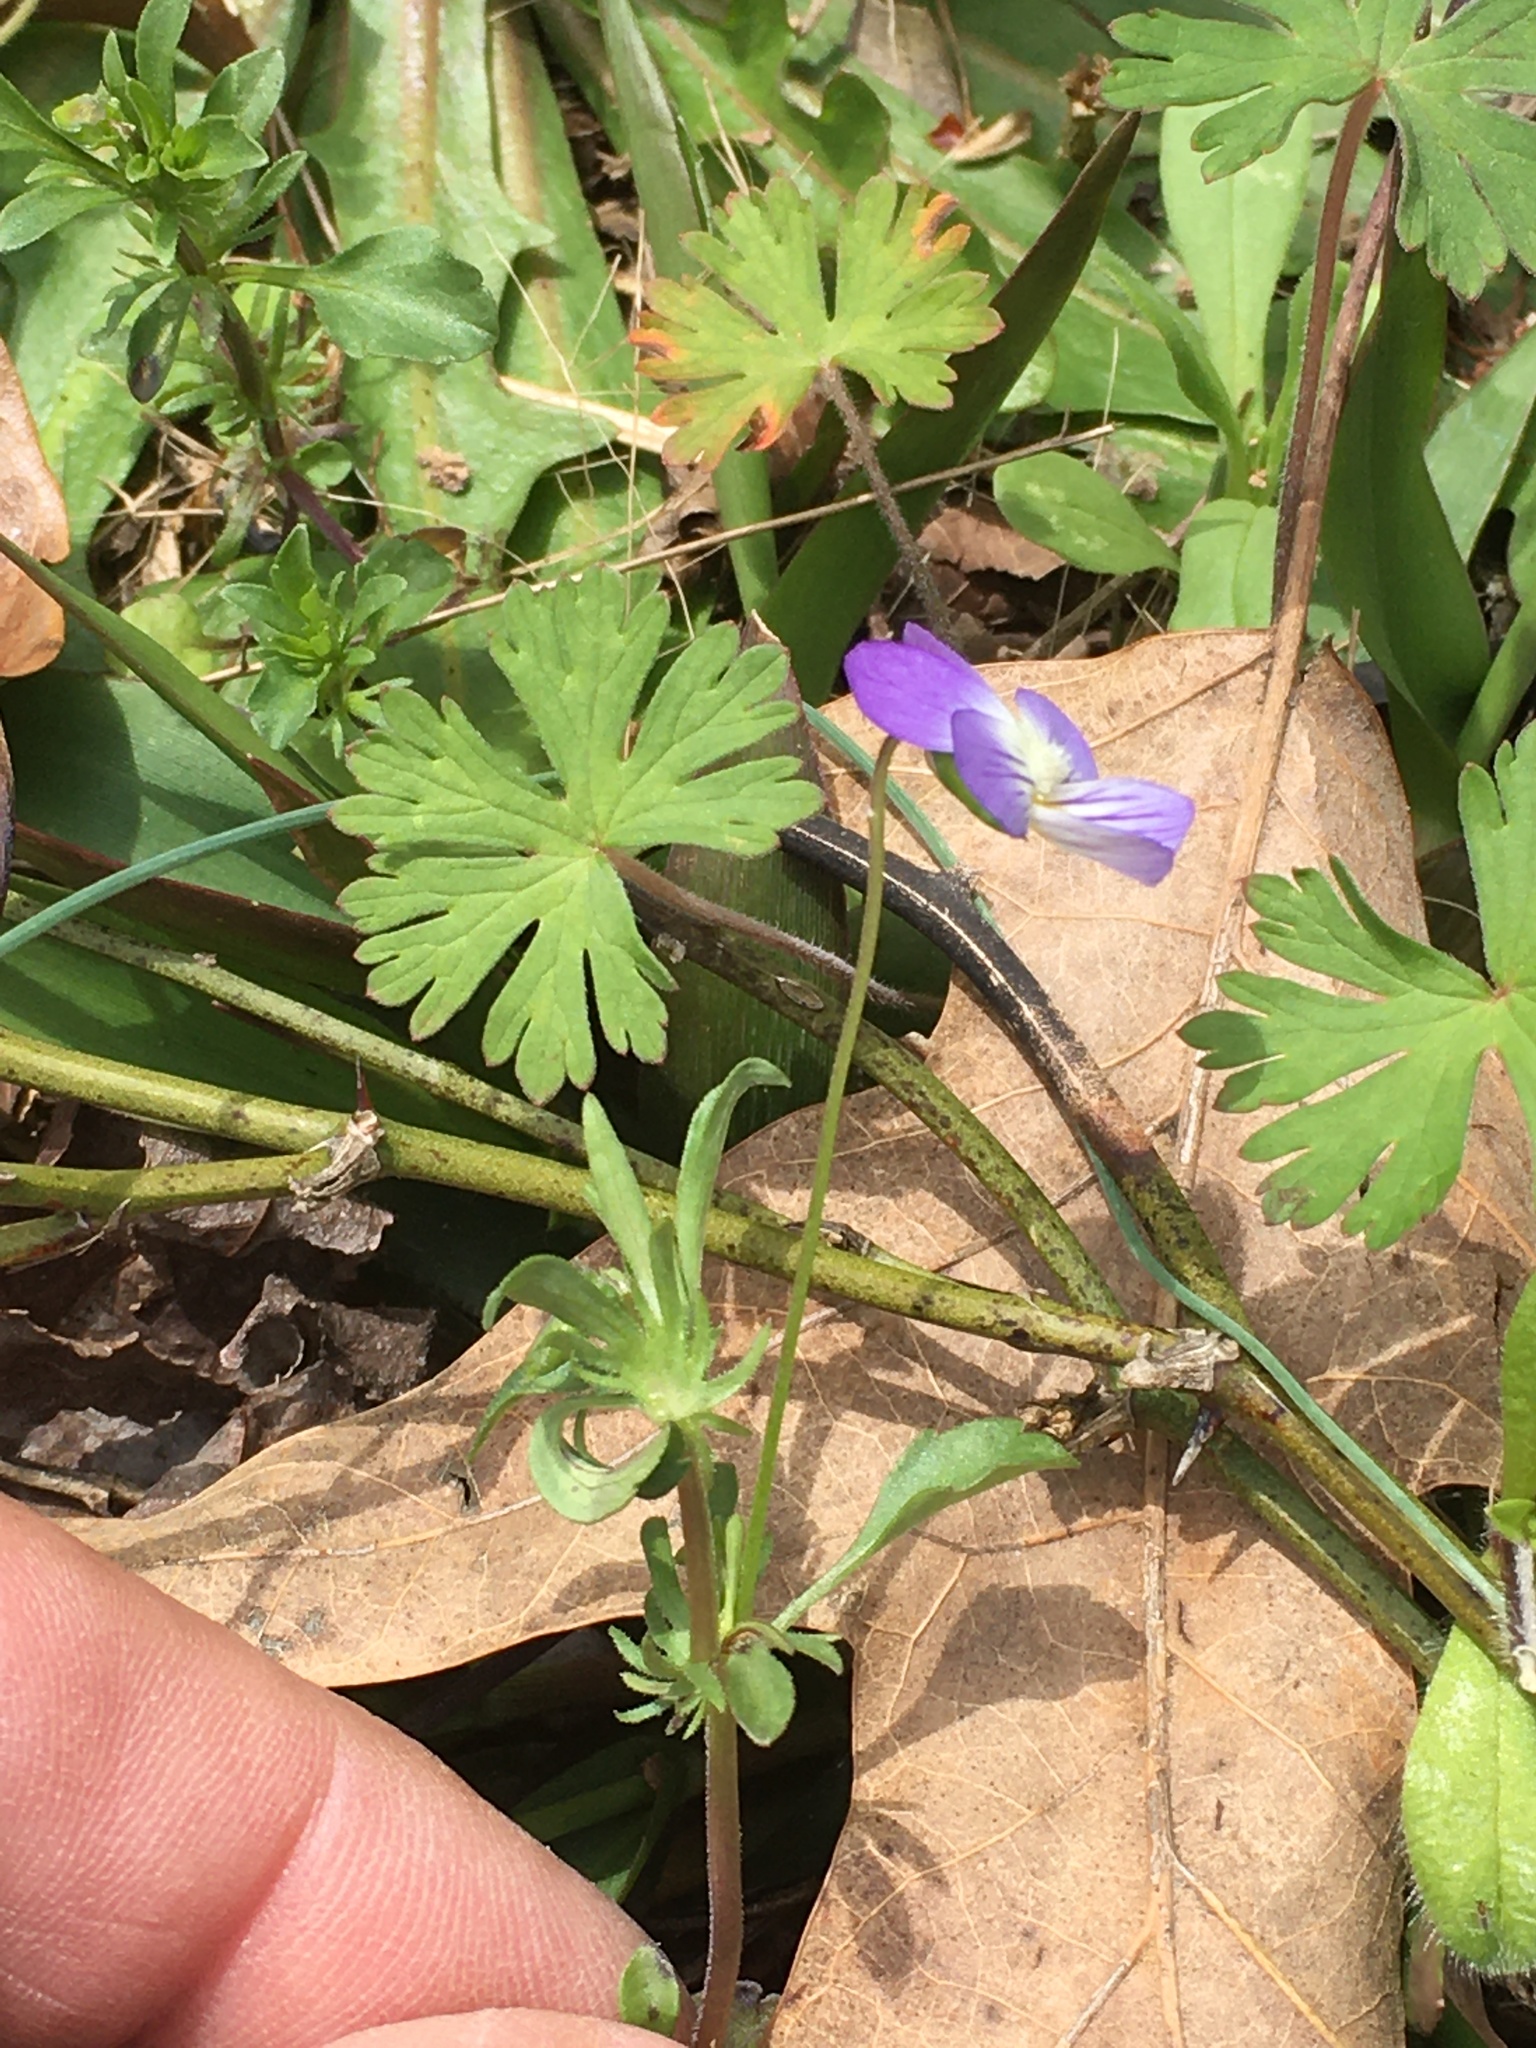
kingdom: Plantae
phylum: Tracheophyta
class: Magnoliopsida
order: Malpighiales
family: Violaceae
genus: Viola
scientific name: Viola rafinesquei
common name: American field pansy
